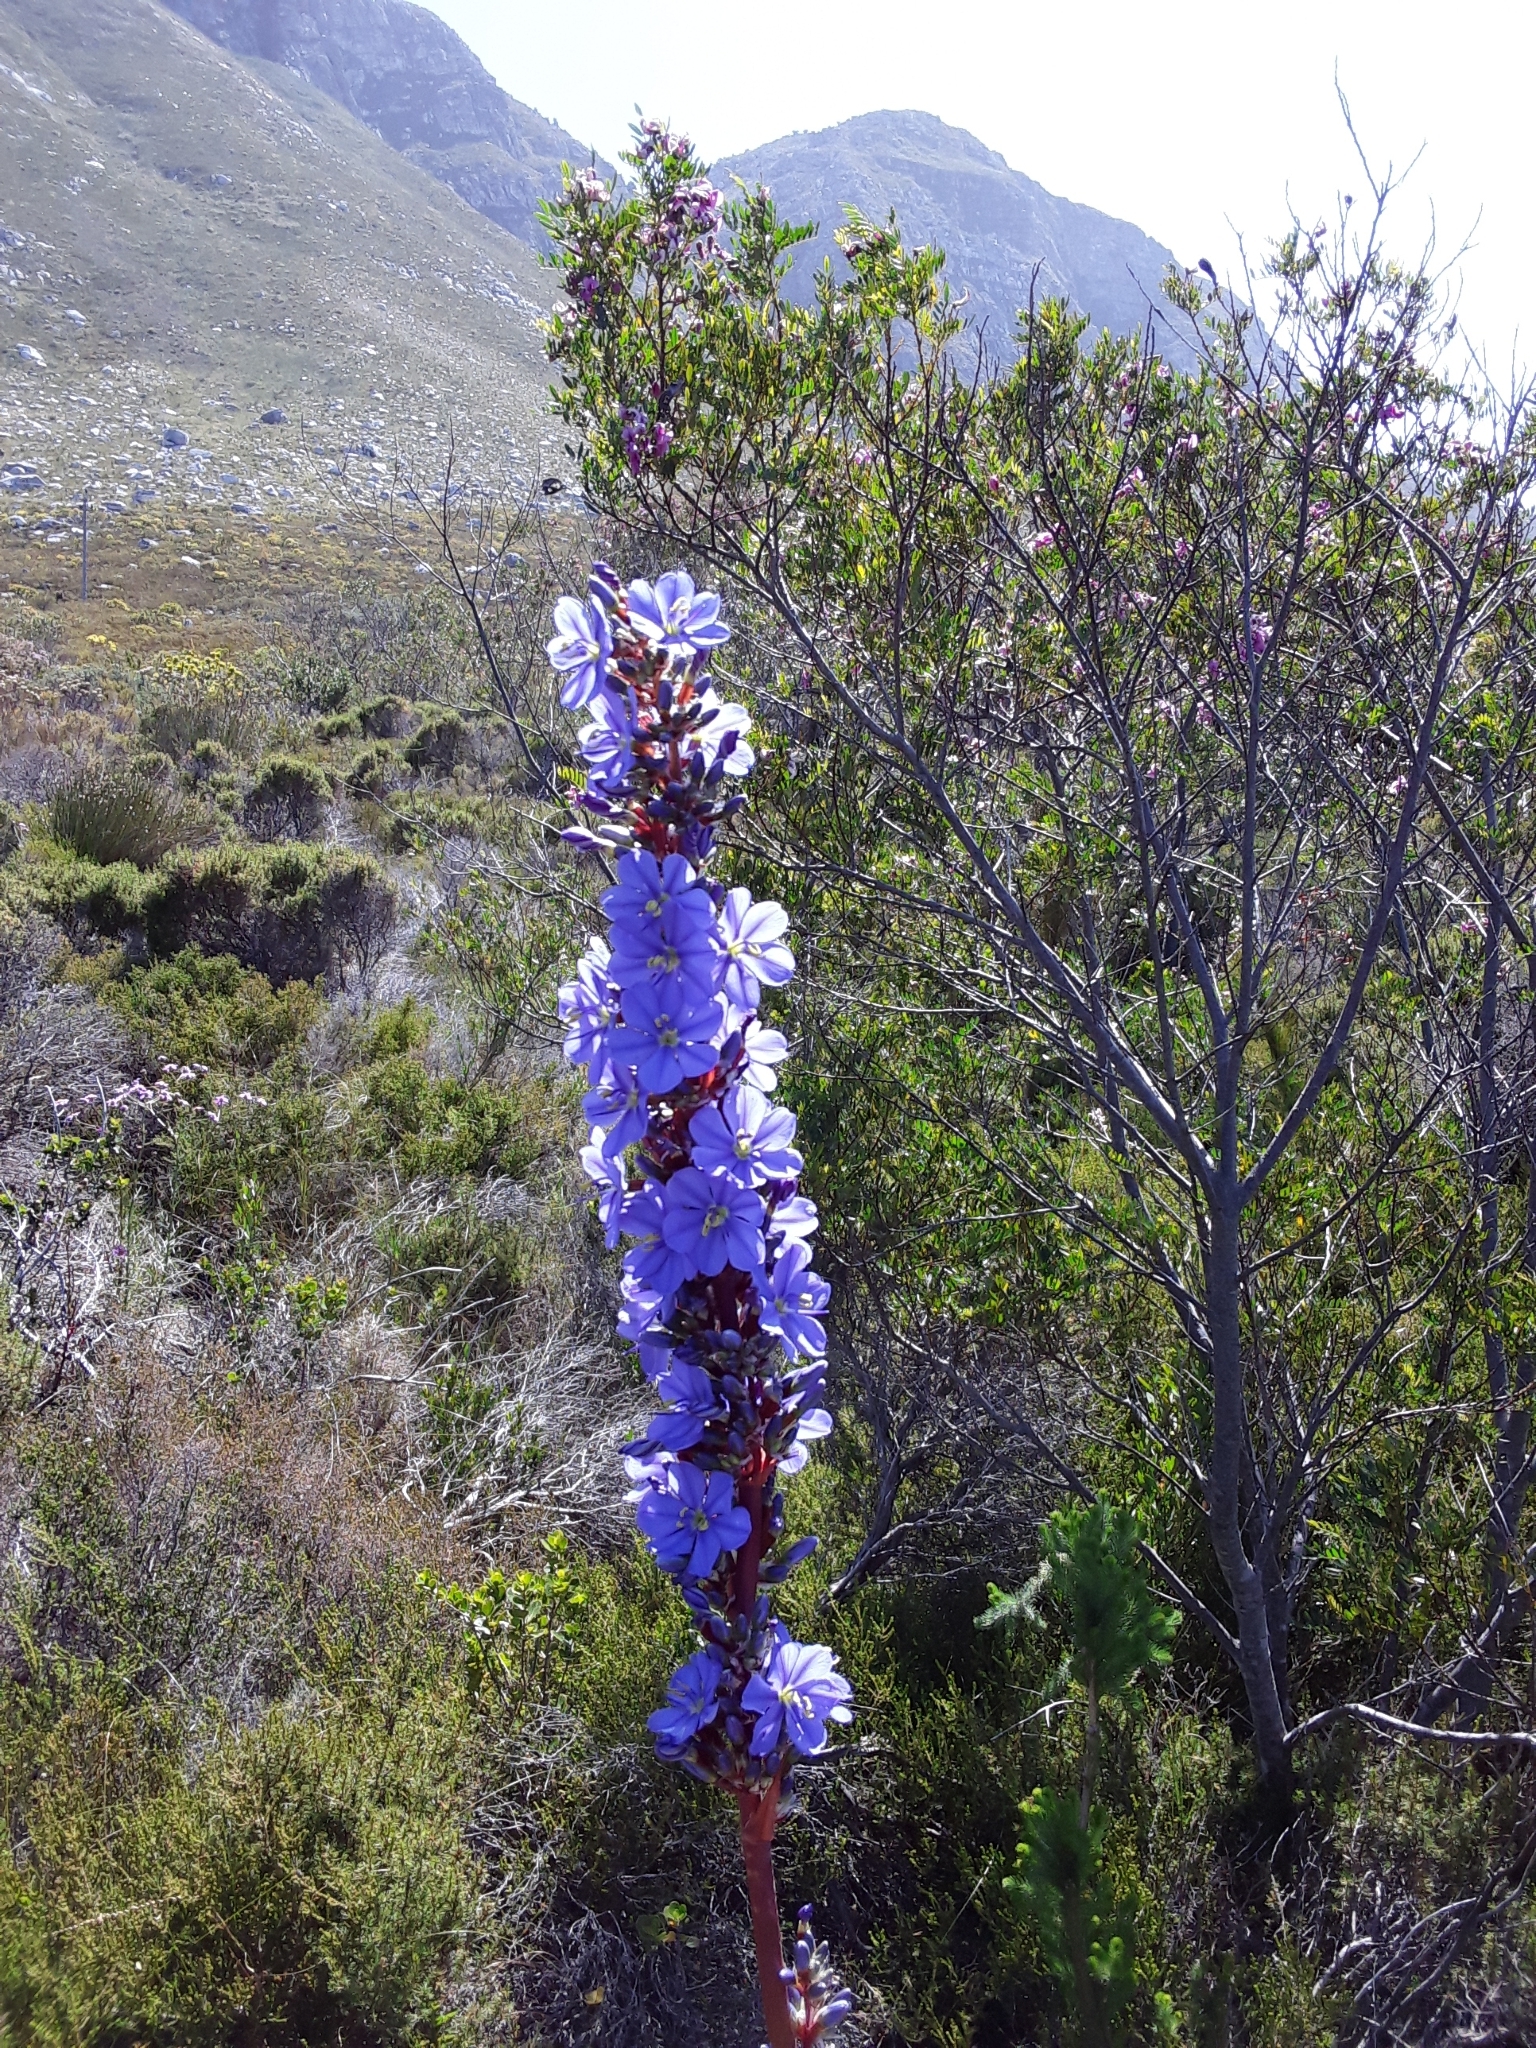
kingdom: Plantae
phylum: Tracheophyta
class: Liliopsida
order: Asparagales
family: Iridaceae
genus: Aristea
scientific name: Aristea capitata
